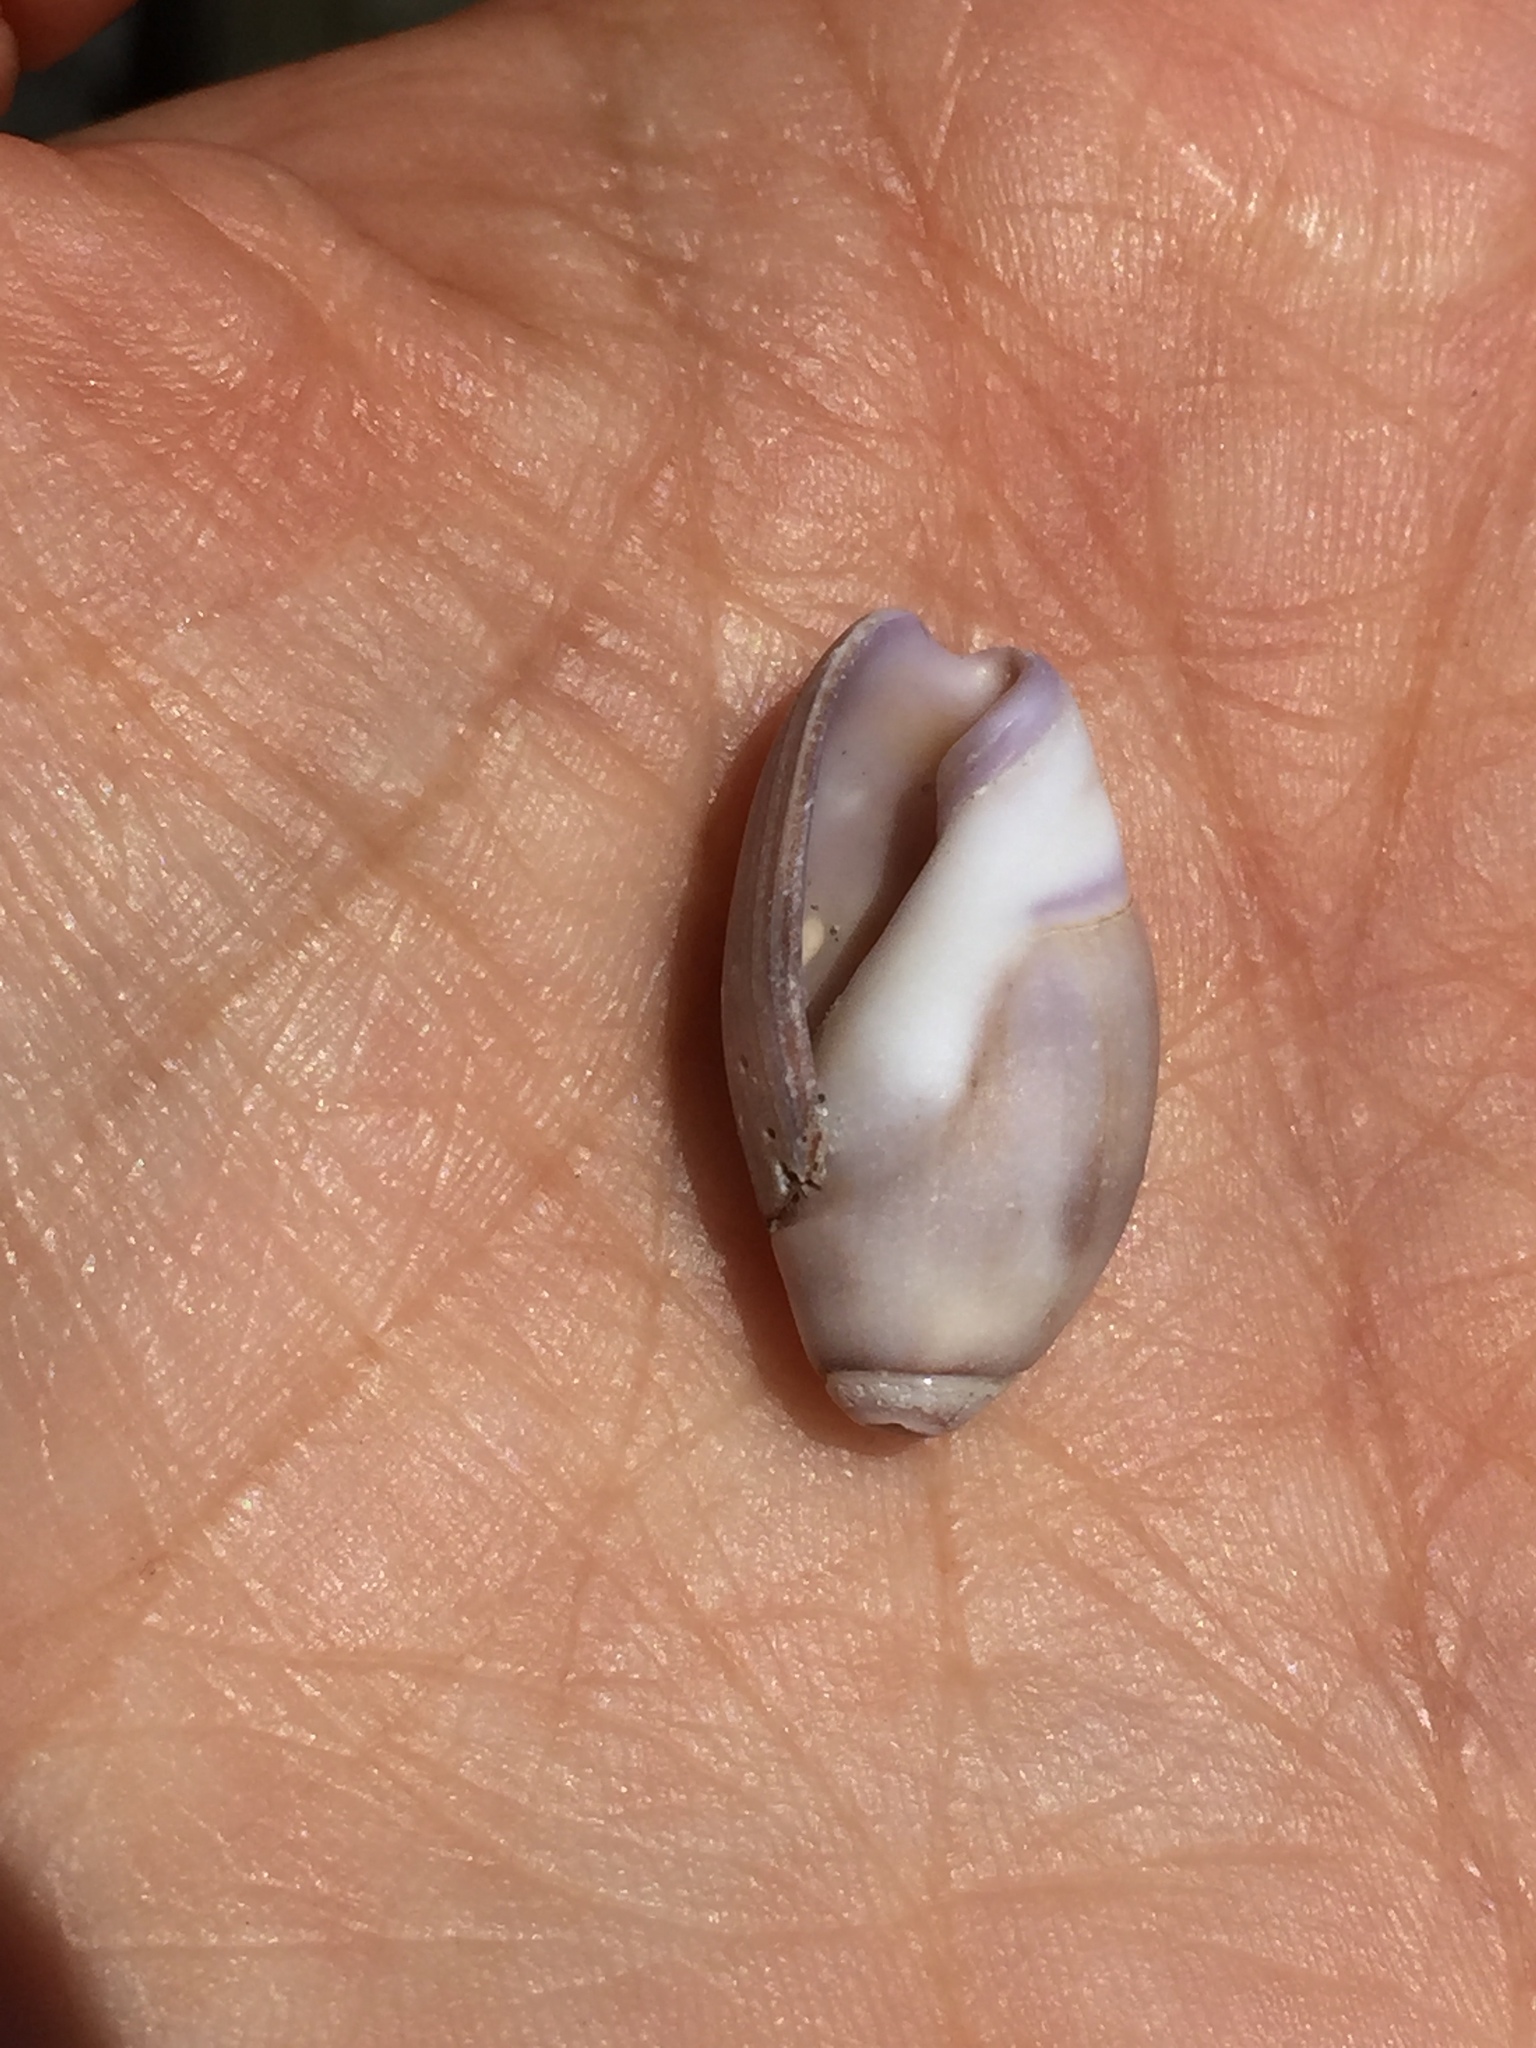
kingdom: Animalia
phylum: Mollusca
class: Gastropoda
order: Neogastropoda
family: Olividae
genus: Callianax
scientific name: Callianax biplicata
